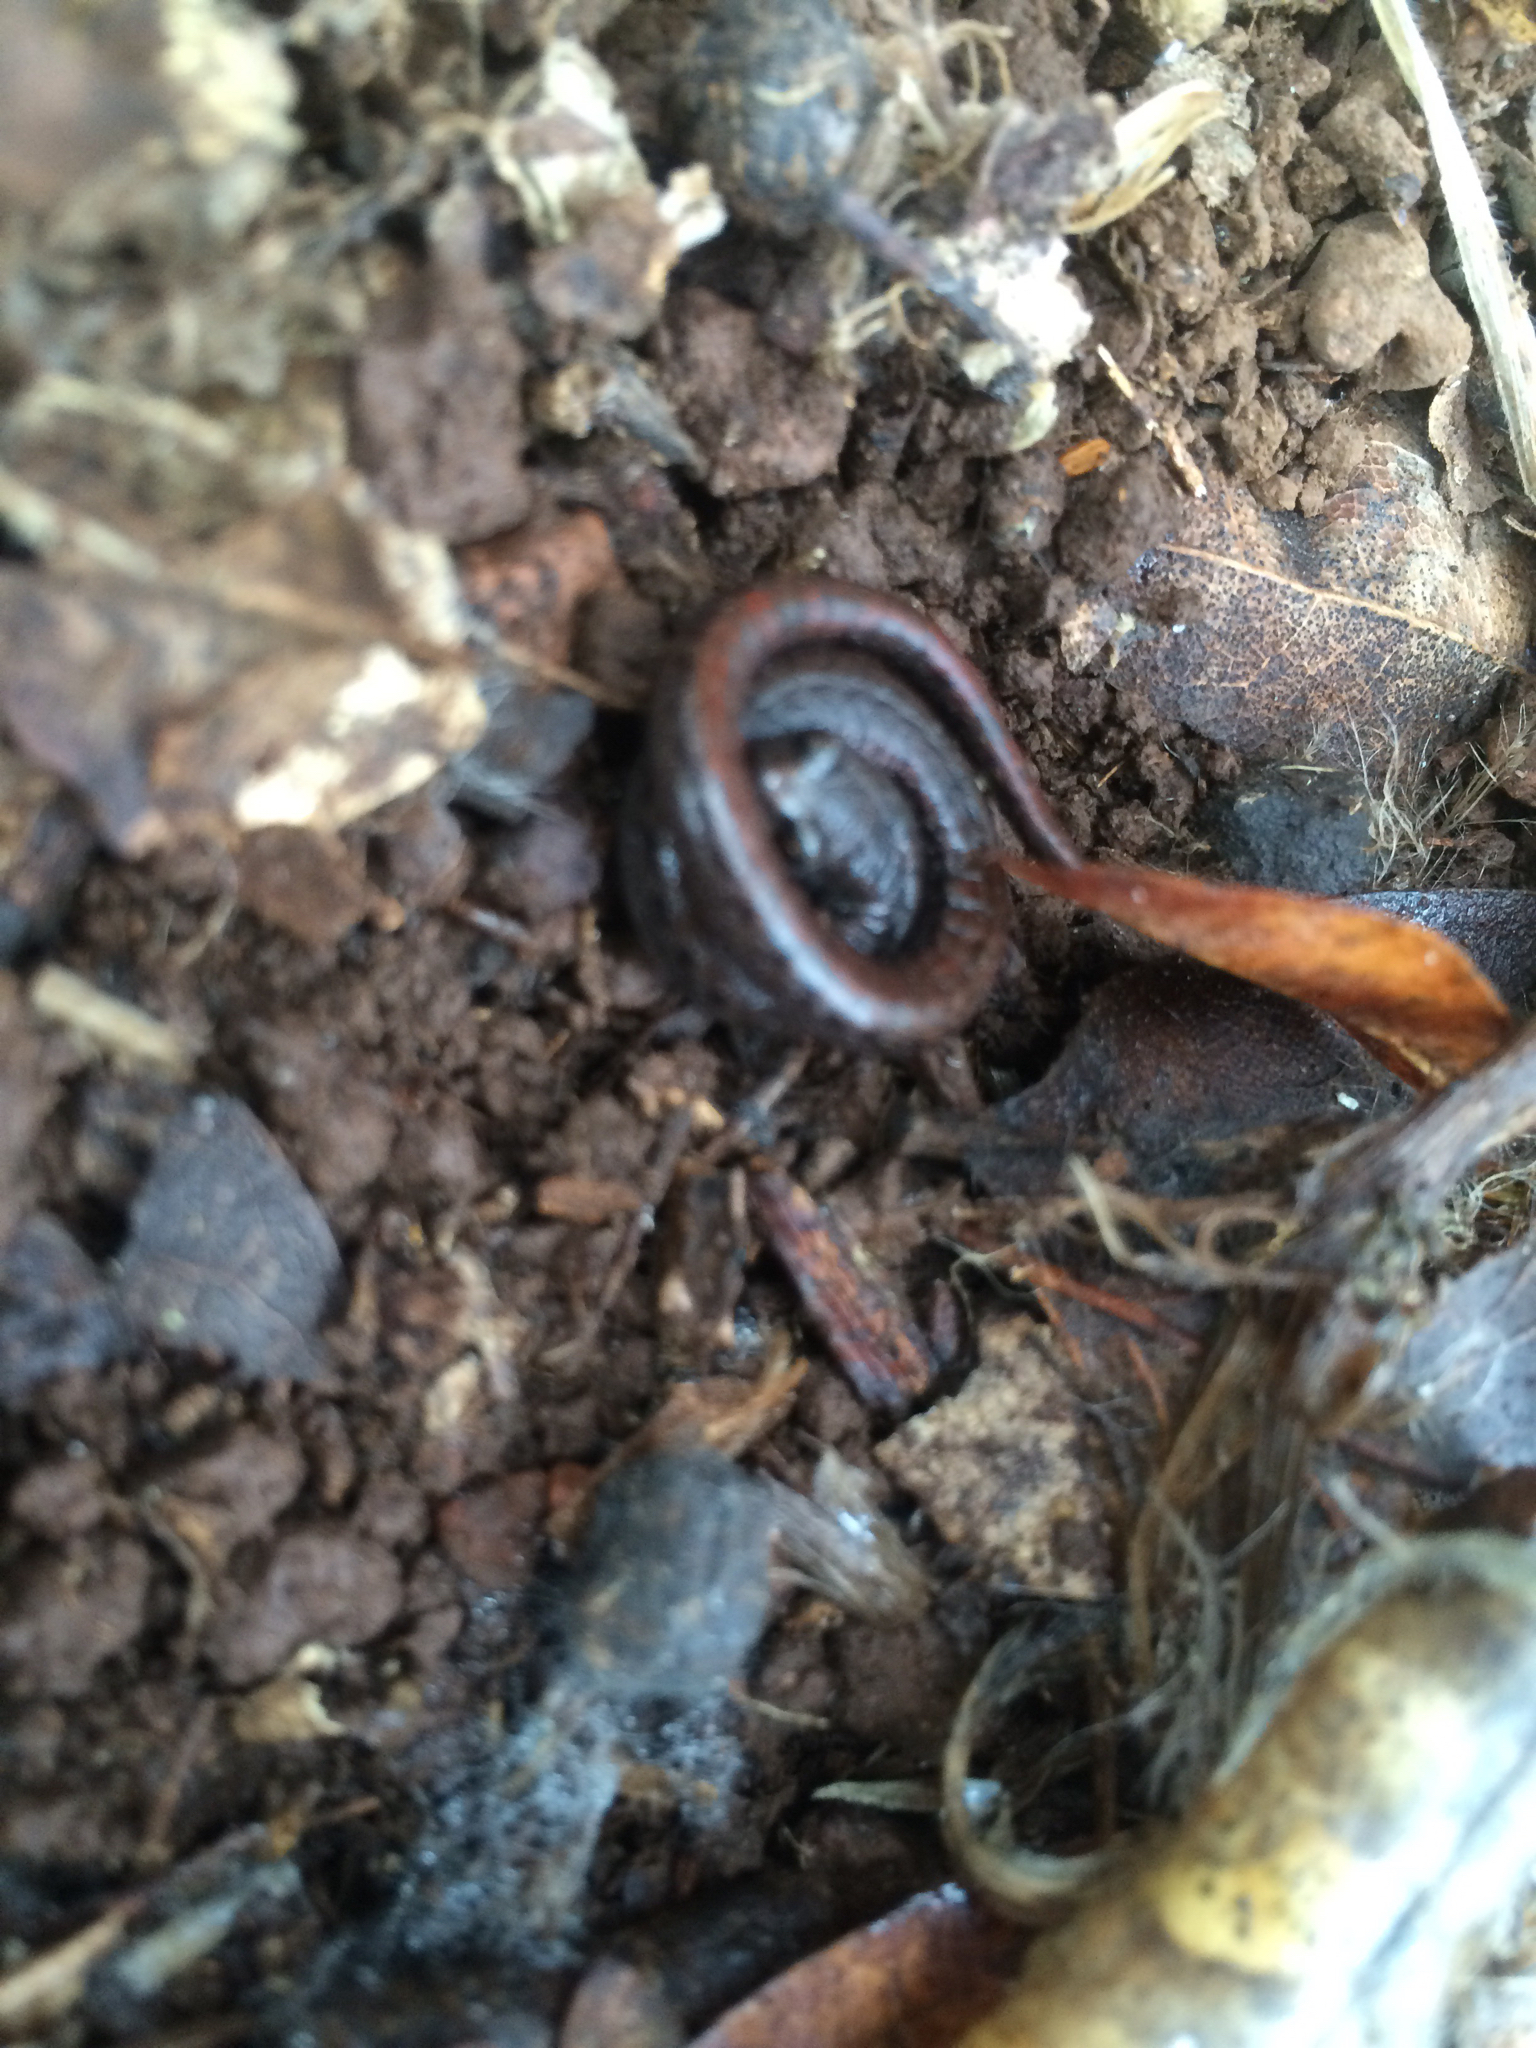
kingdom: Animalia
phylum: Chordata
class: Amphibia
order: Caudata
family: Plethodontidae
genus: Batrachoseps
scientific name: Batrachoseps attenuatus
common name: California slender salamander
